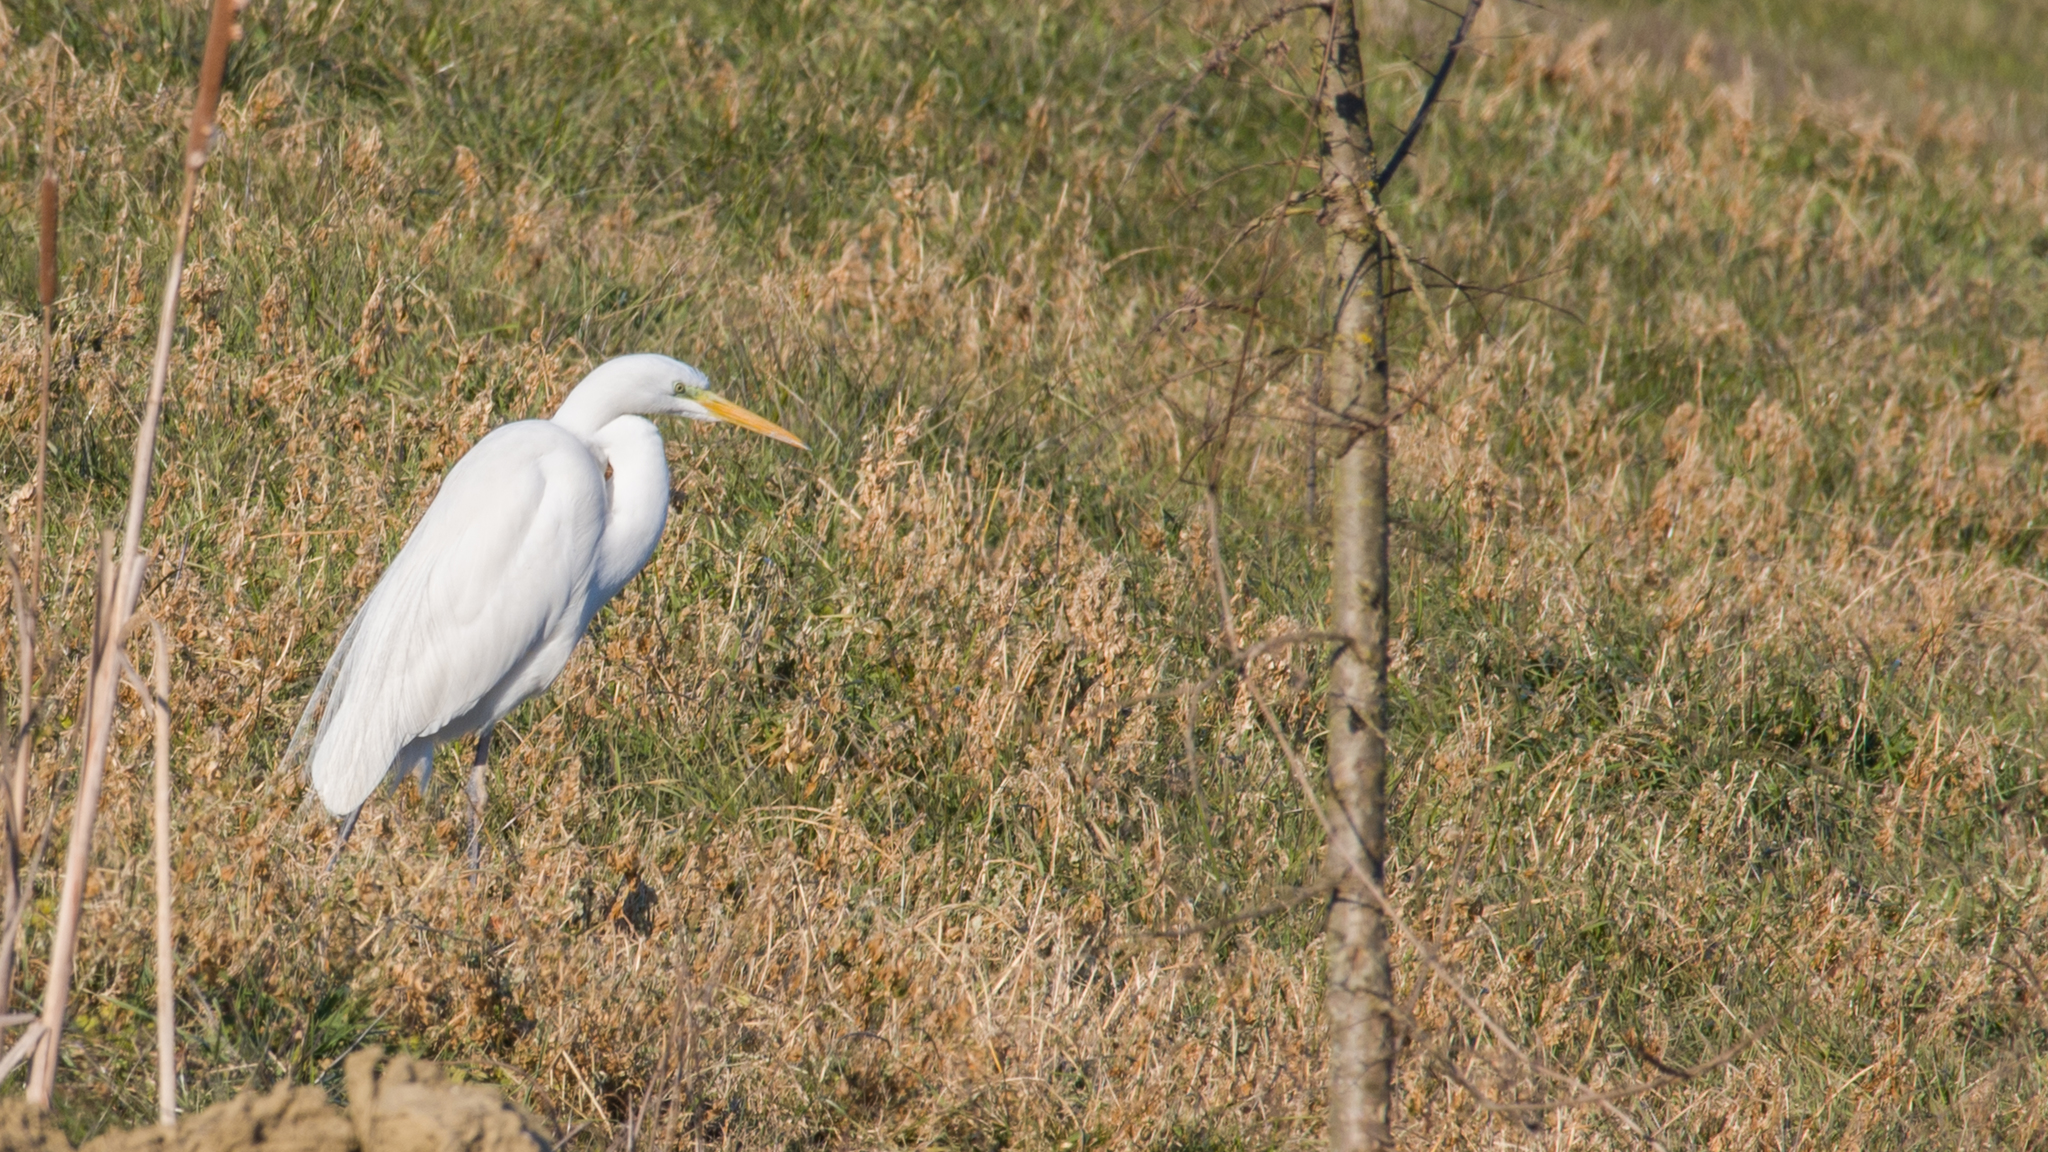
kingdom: Animalia
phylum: Chordata
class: Aves
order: Pelecaniformes
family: Ardeidae
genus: Ardea
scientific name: Ardea alba
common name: Great egret
